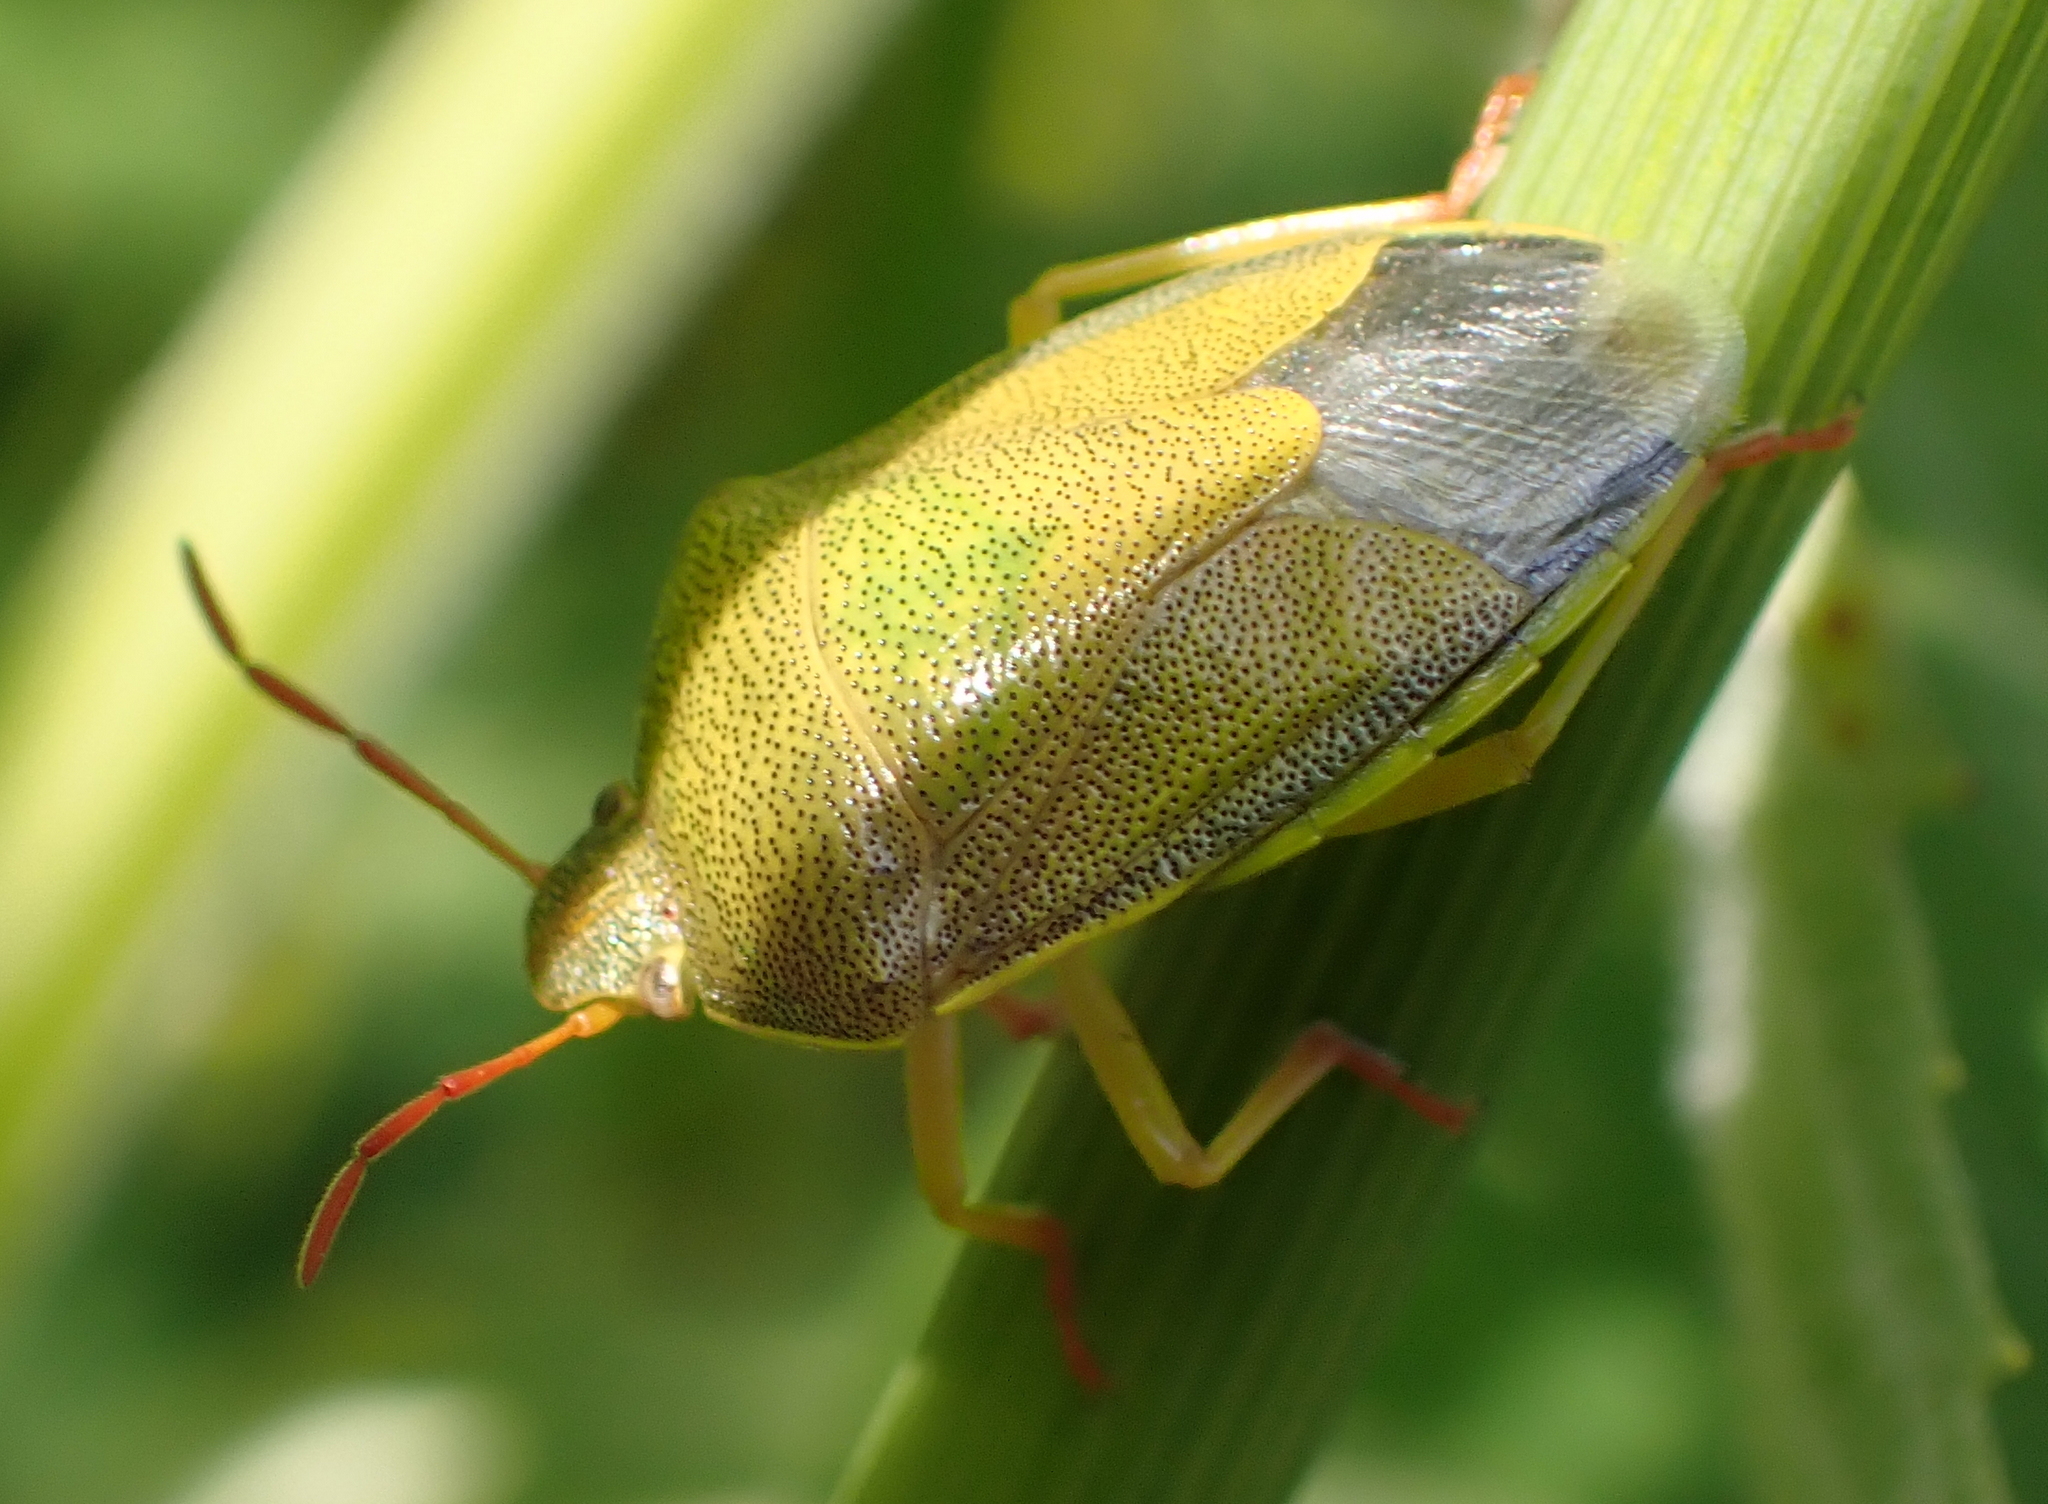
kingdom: Animalia
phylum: Arthropoda
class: Insecta
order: Hemiptera
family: Pentatomidae
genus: Piezodorus
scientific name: Piezodorus lituratus
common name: Stink bug
